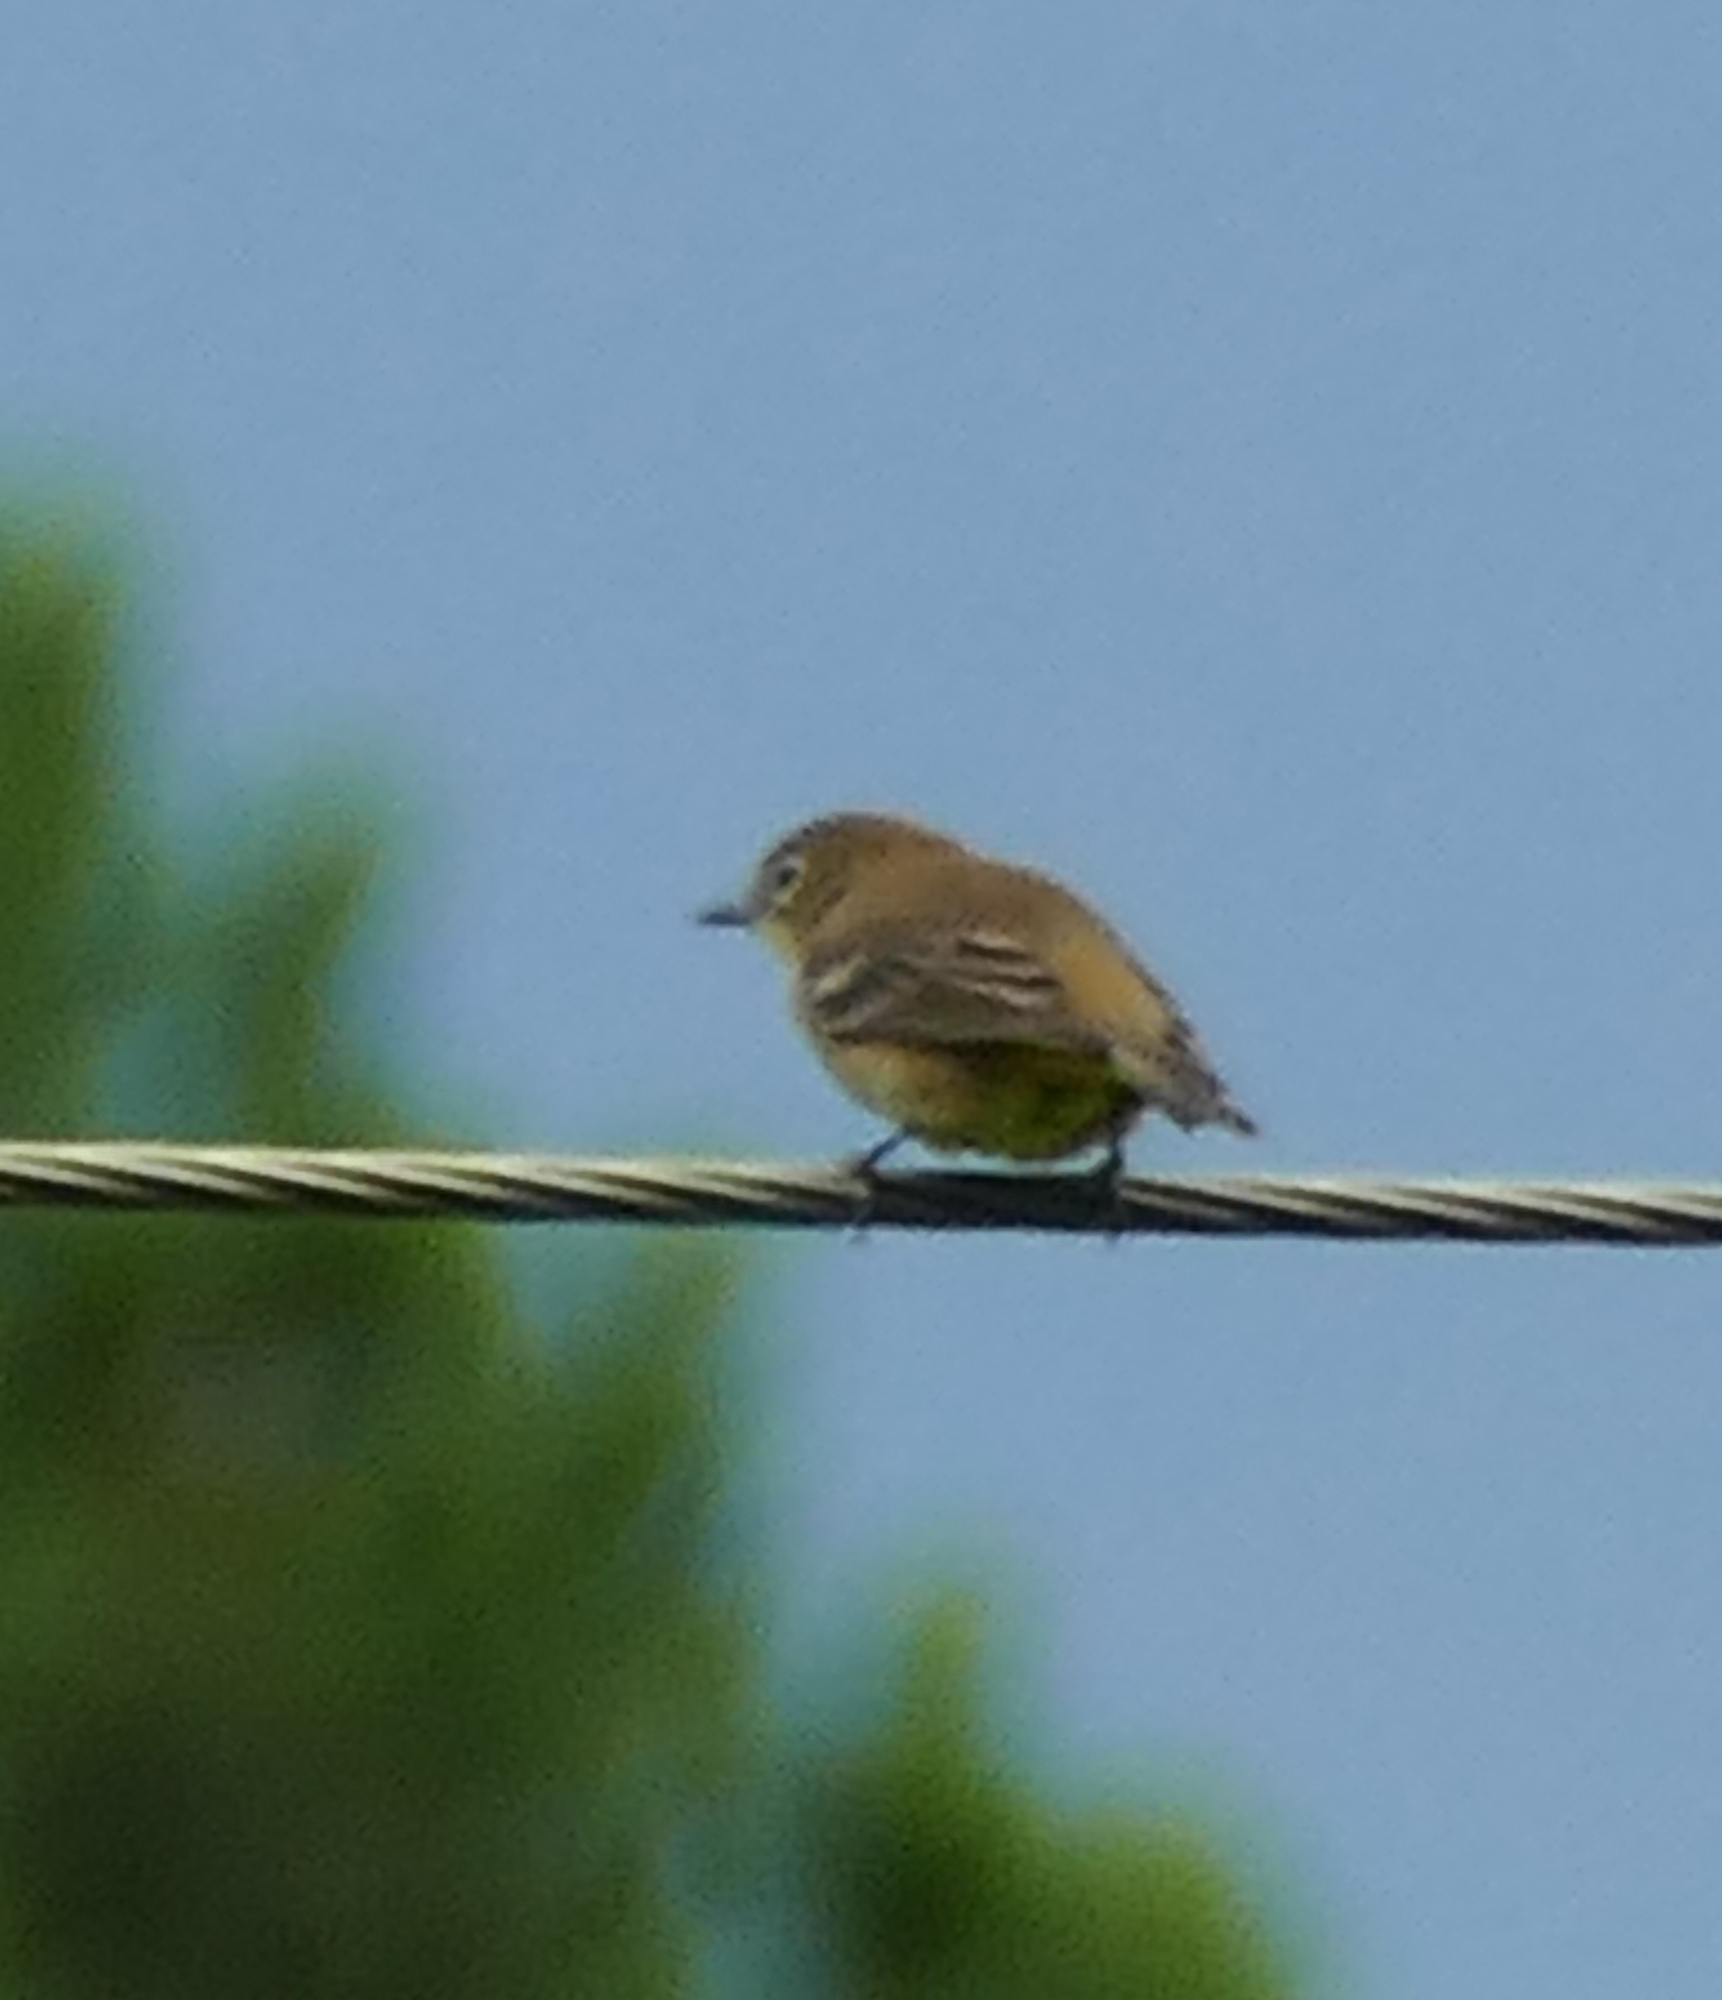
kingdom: Animalia
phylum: Chordata
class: Aves
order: Passeriformes
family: Parulidae
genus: Setophaga
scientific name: Setophaga pinus
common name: Pine warbler
